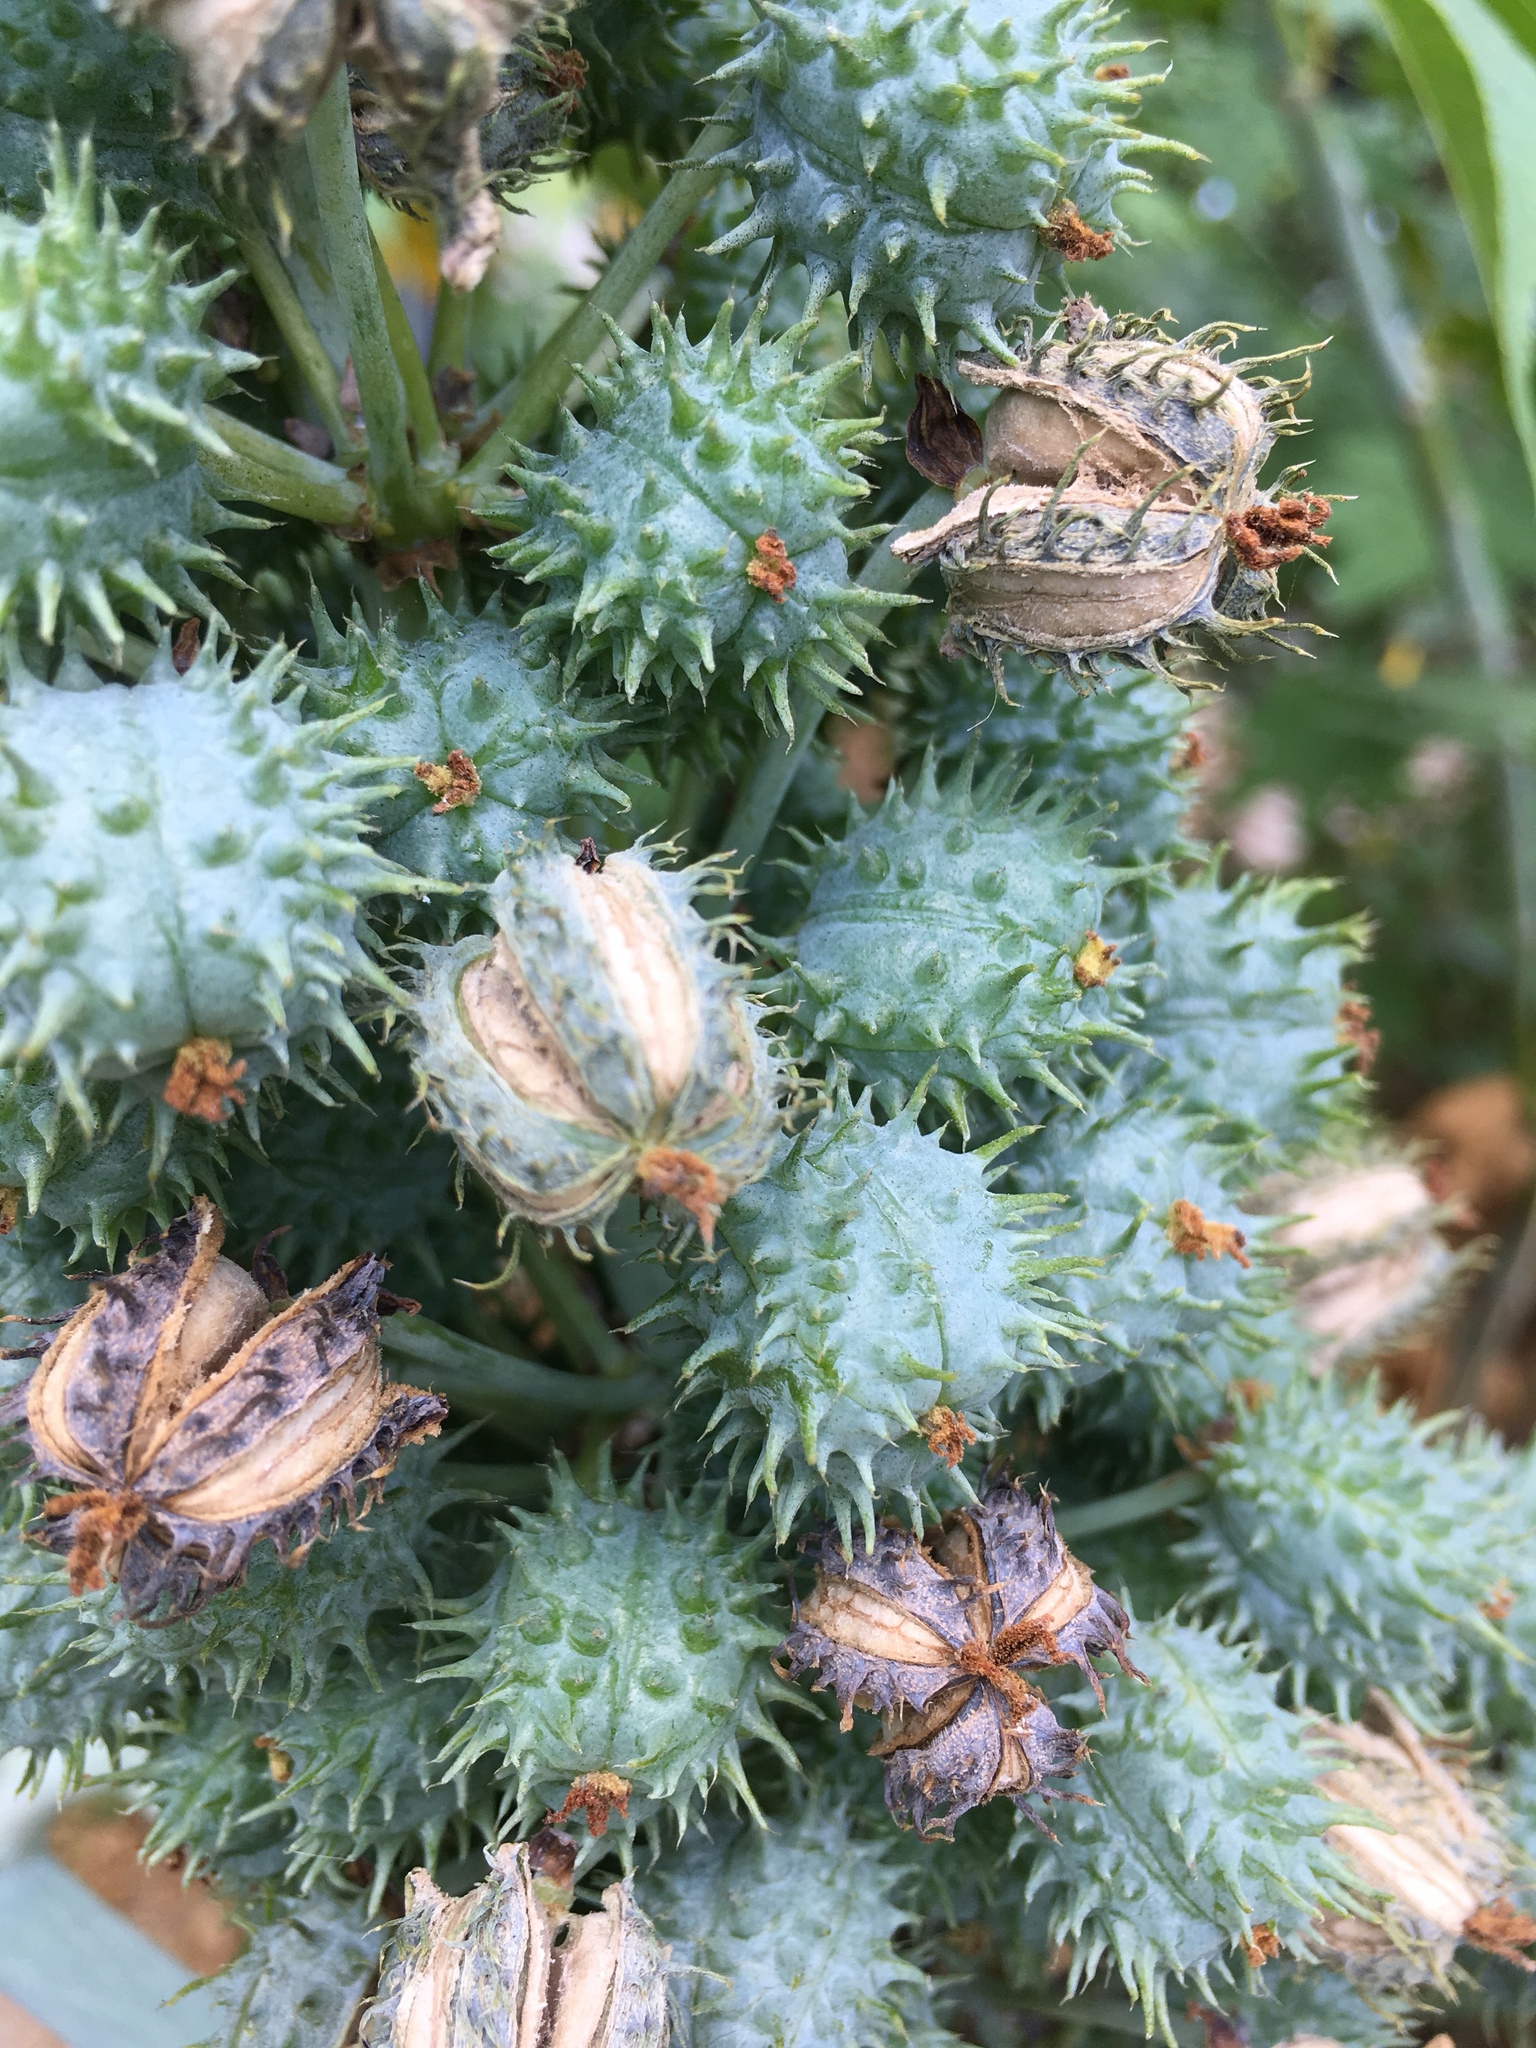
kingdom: Plantae
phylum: Tracheophyta
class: Magnoliopsida
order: Malpighiales
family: Euphorbiaceae
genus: Ricinus
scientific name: Ricinus communis
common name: Castor-oil-plant
